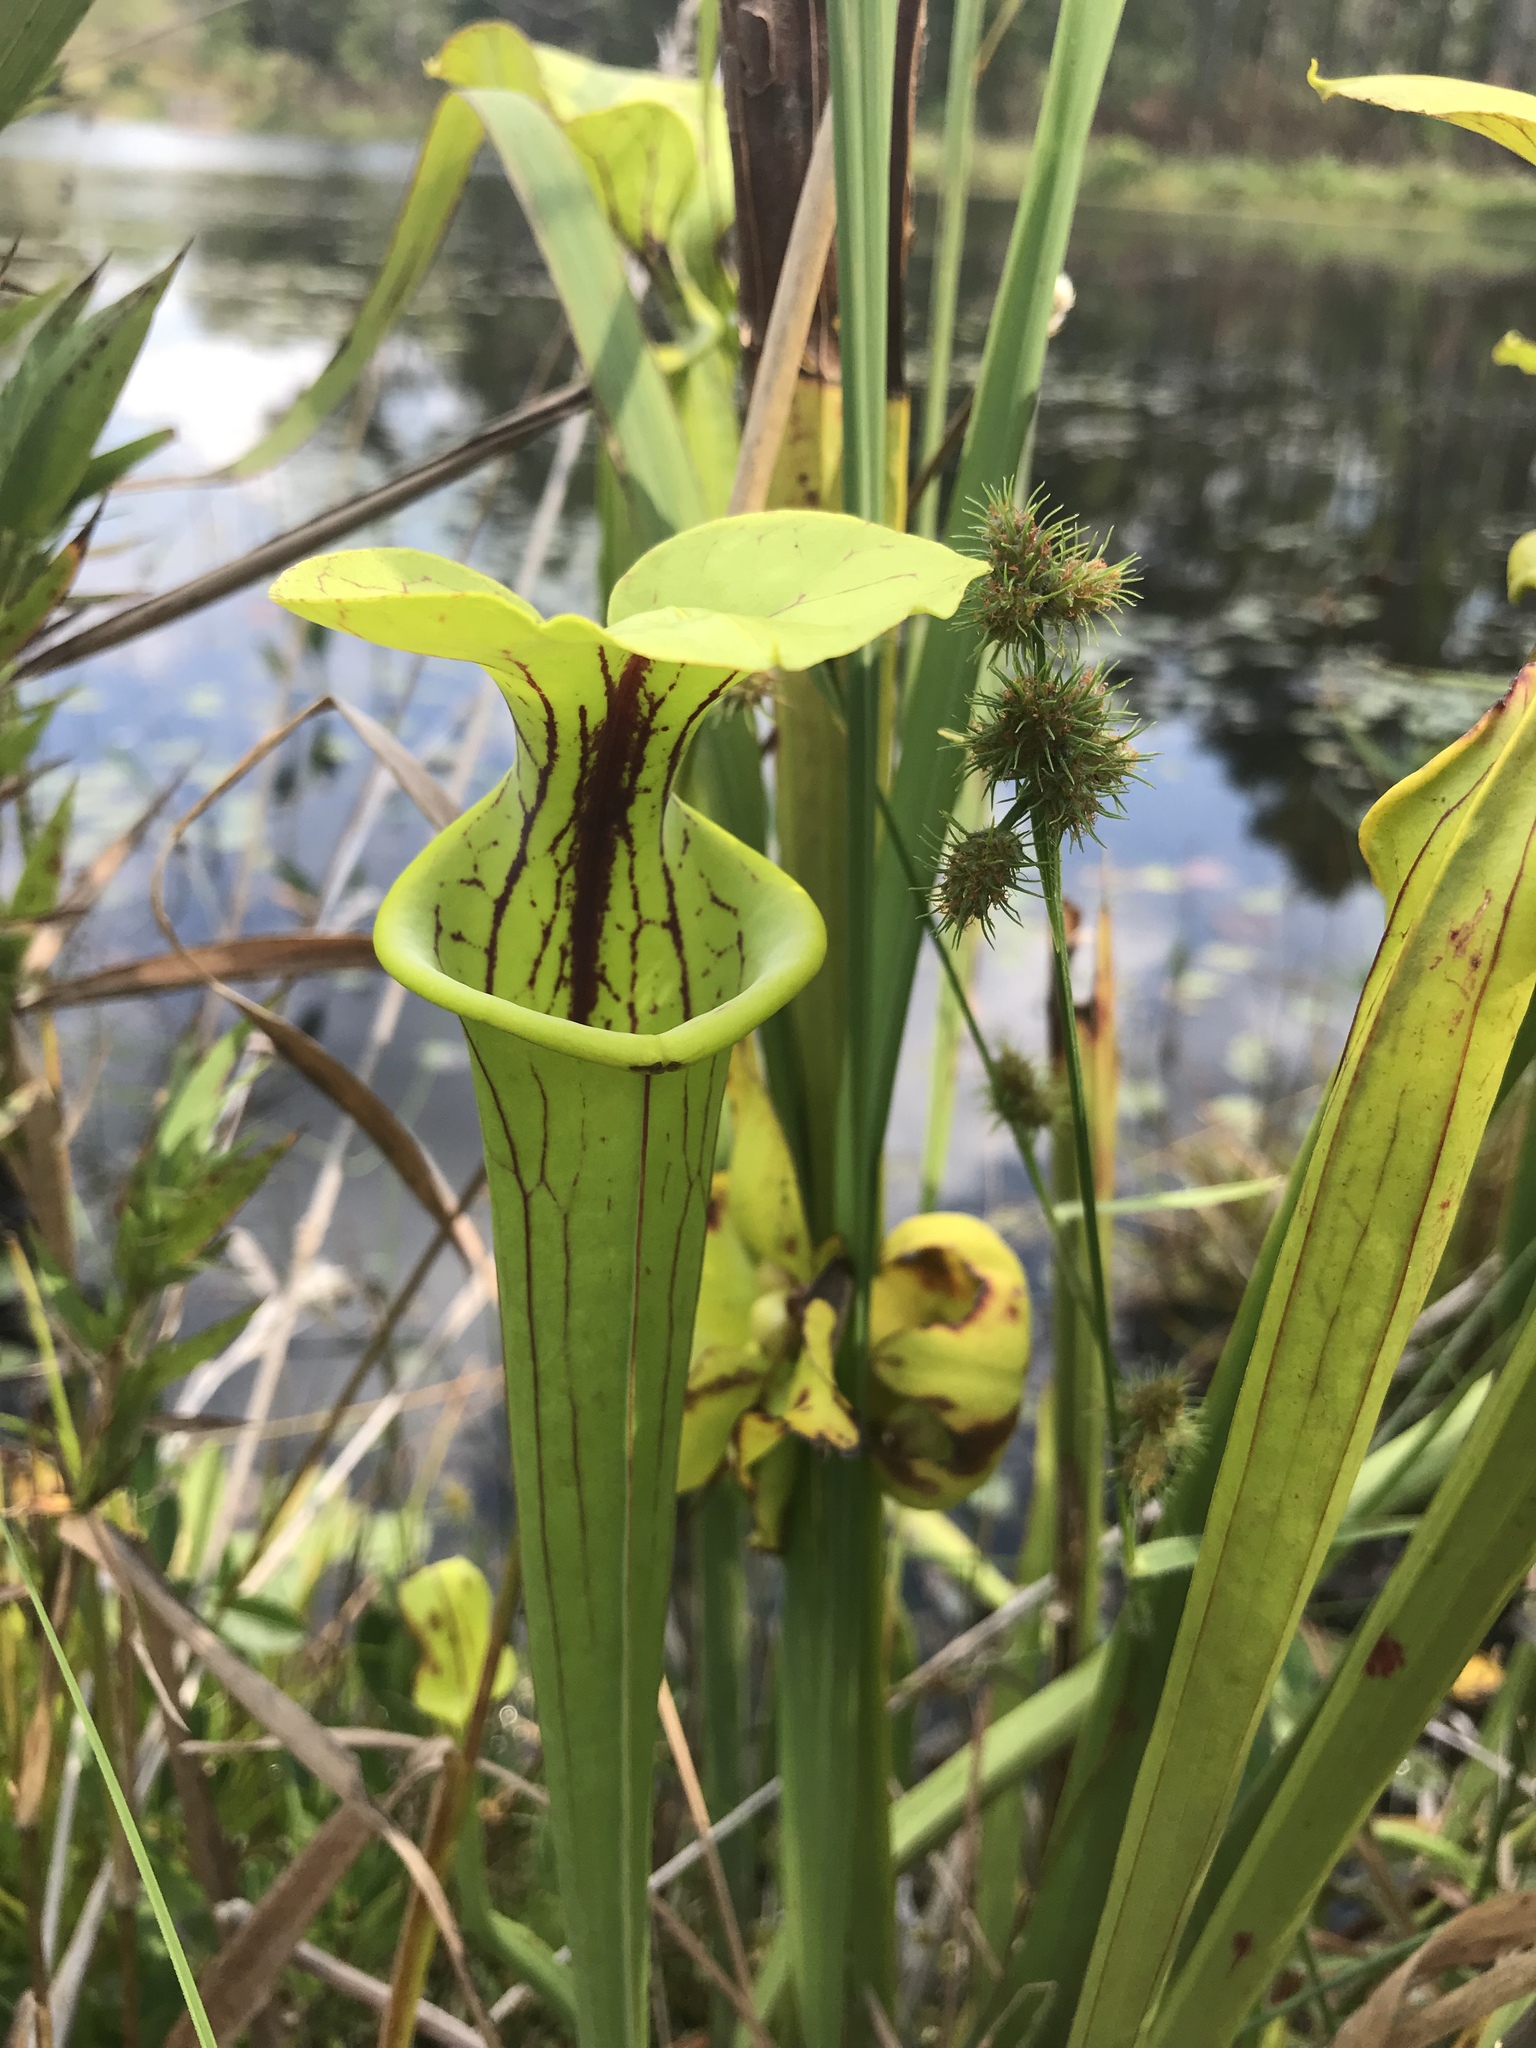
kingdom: Plantae
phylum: Tracheophyta
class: Magnoliopsida
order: Ericales
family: Sarraceniaceae
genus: Sarracenia
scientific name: Sarracenia flava
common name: Trumpets
